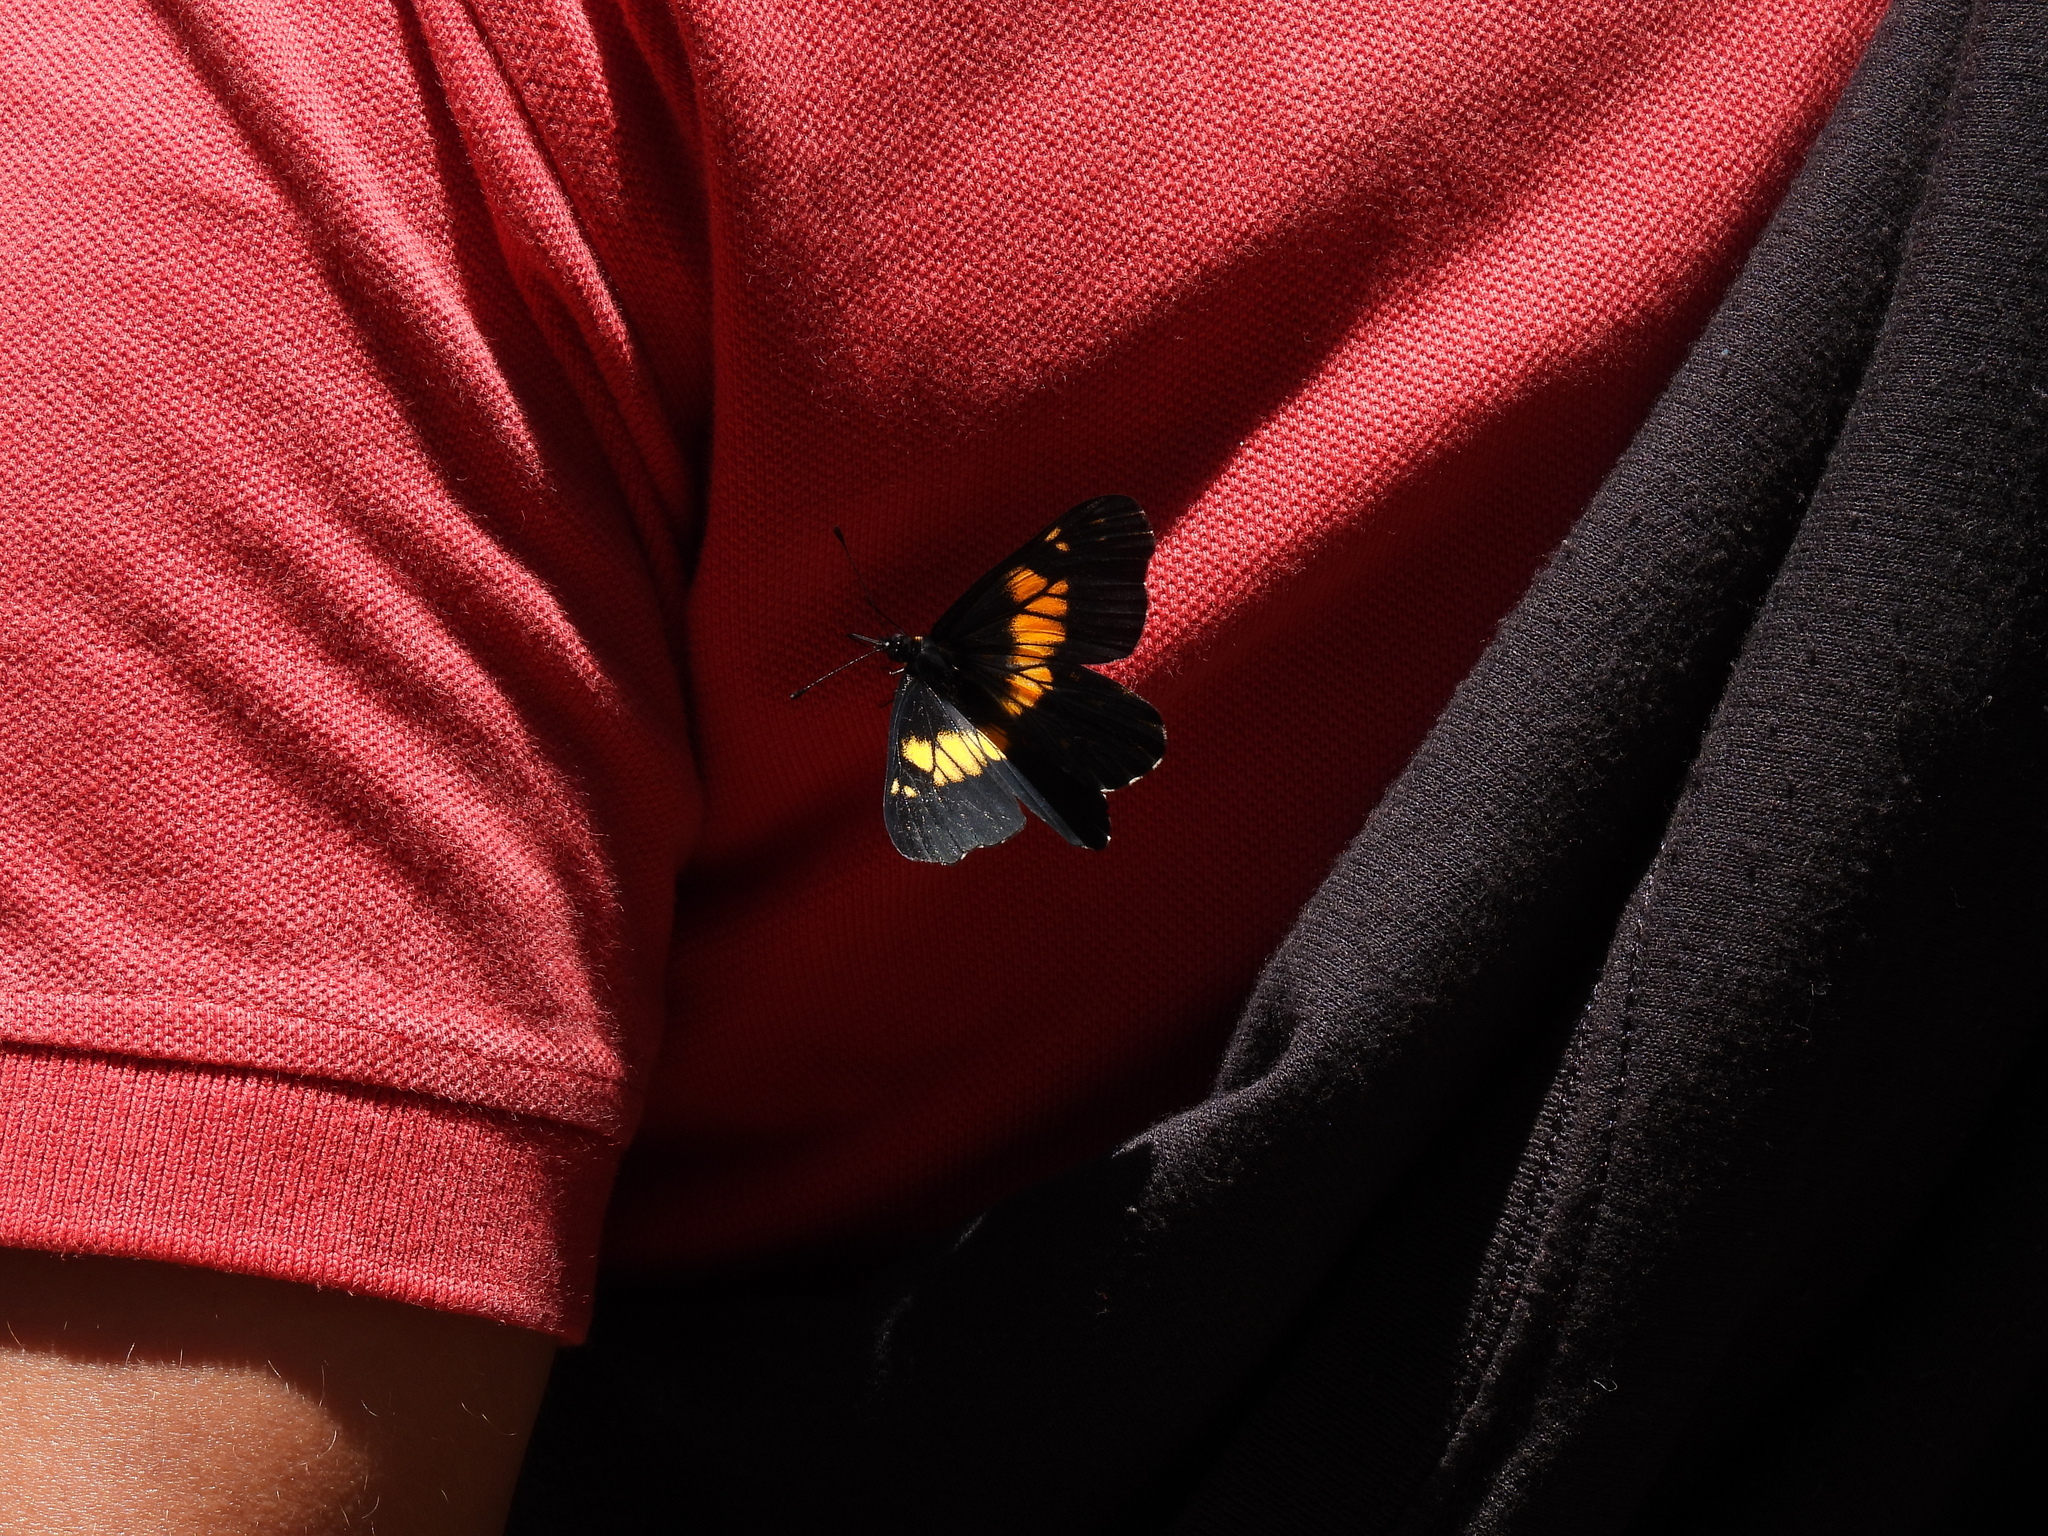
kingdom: Animalia
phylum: Arthropoda
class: Insecta
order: Lepidoptera
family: Pieridae
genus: Archonias
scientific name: Archonias teutila
